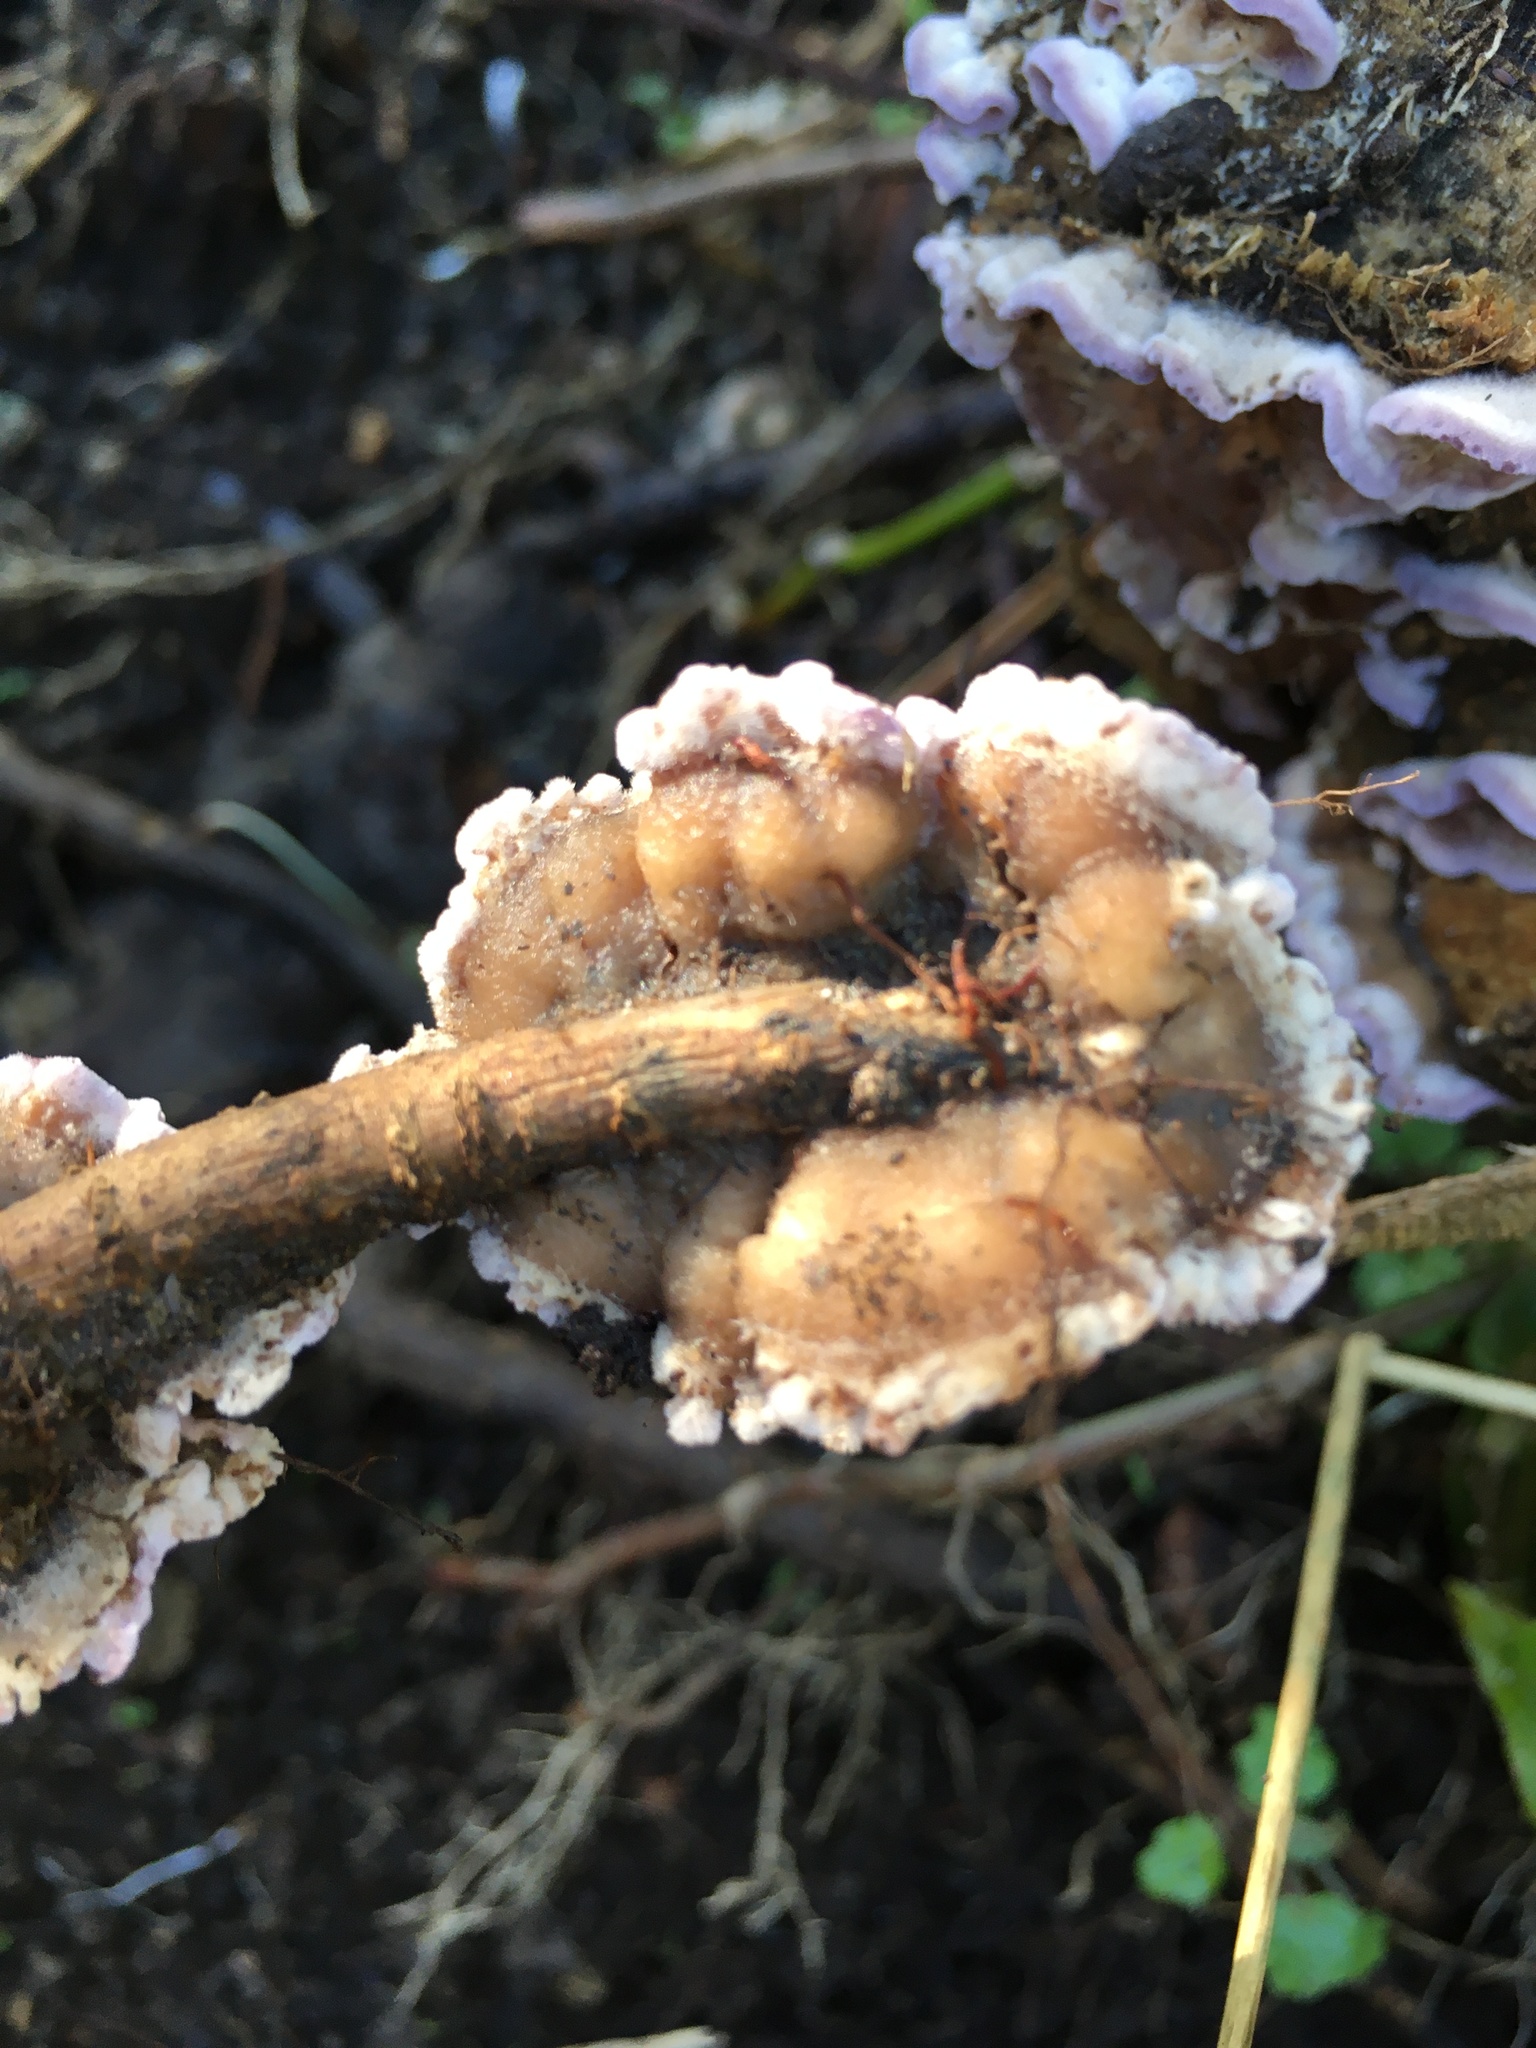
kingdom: Fungi
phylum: Basidiomycota
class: Agaricomycetes
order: Agaricales
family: Cyphellaceae
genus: Chondrostereum
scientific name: Chondrostereum purpureum
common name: Silver leaf disease
